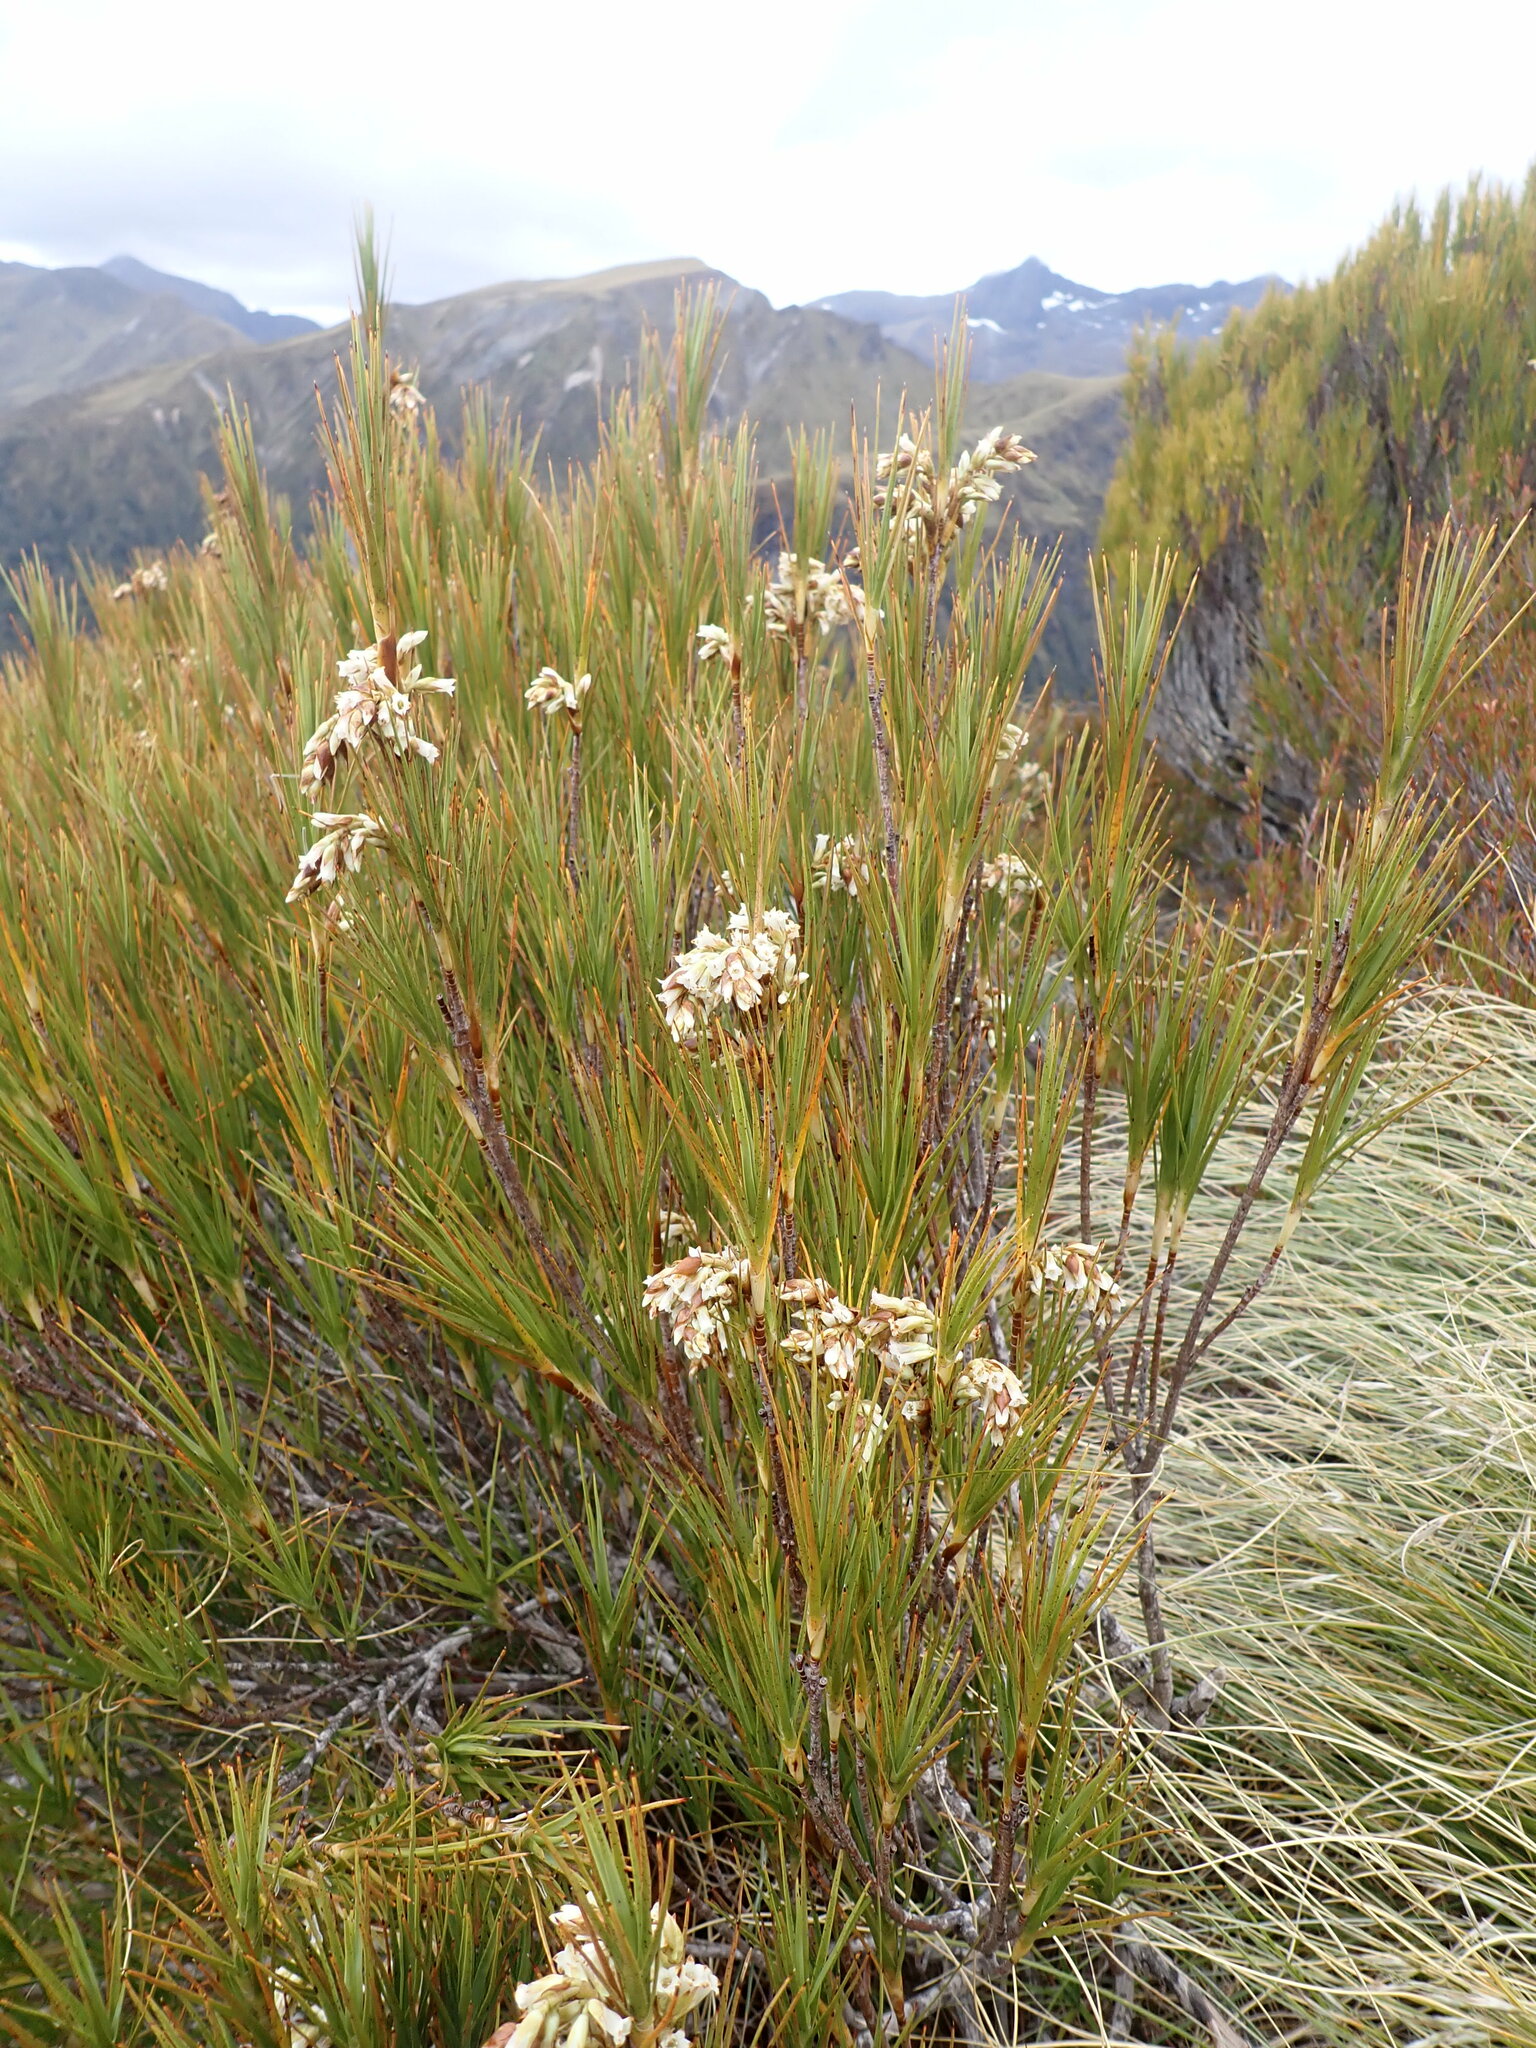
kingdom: Plantae
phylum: Tracheophyta
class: Magnoliopsida
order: Ericales
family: Ericaceae
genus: Dracophyllum
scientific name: Dracophyllum longifolium
